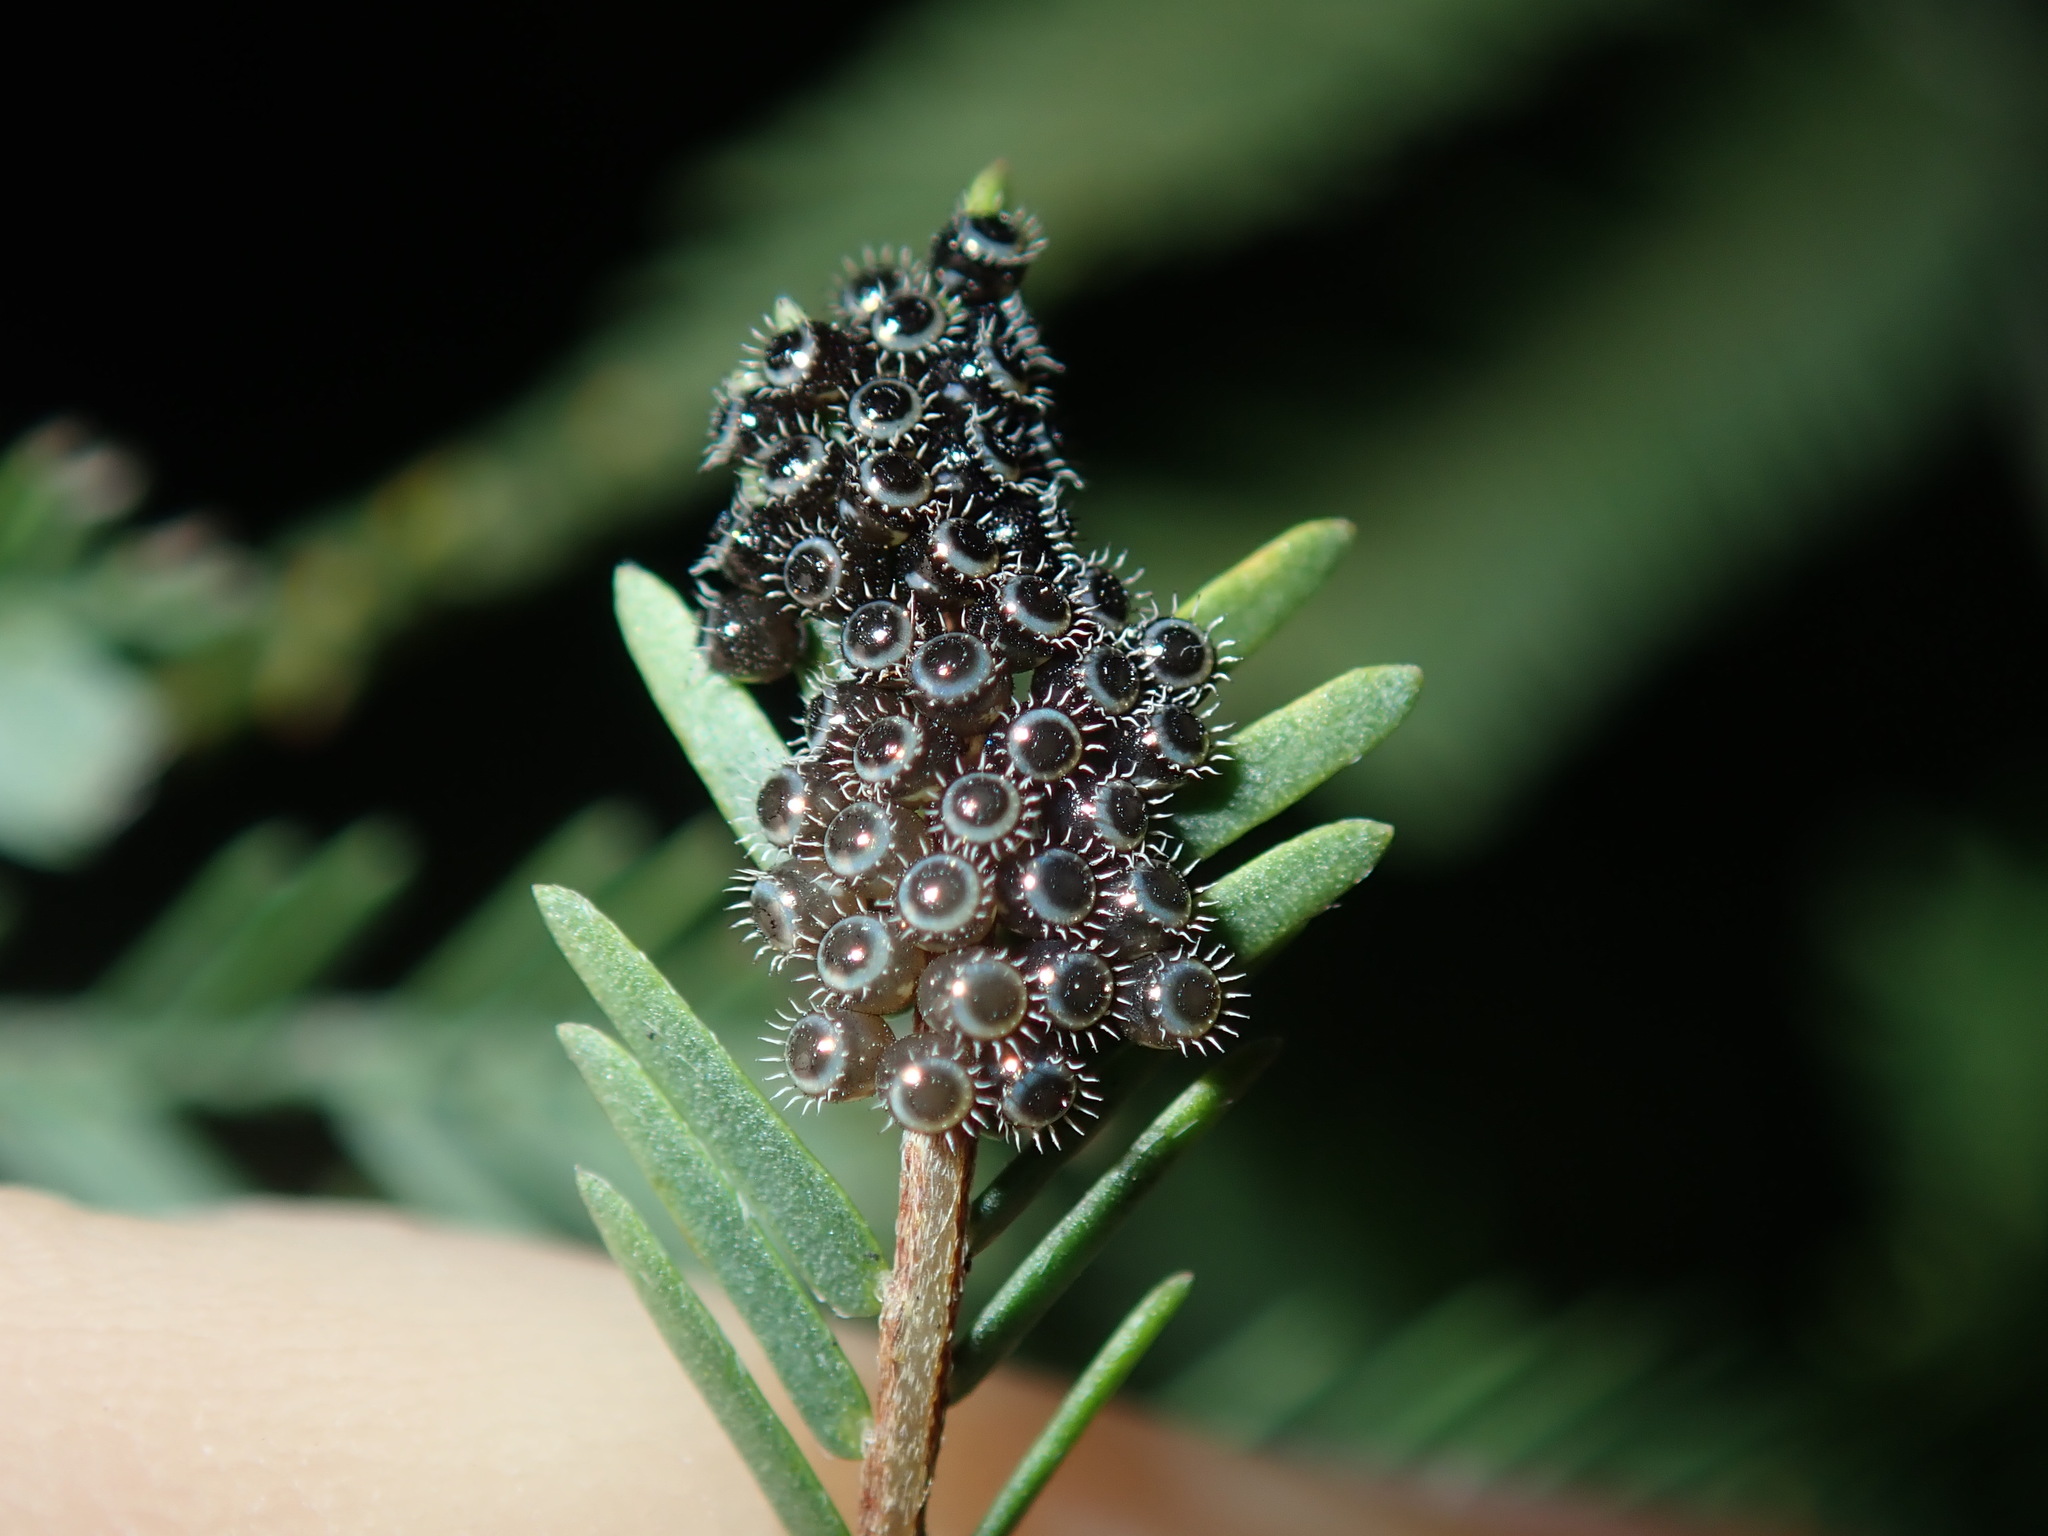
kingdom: Animalia
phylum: Arthropoda
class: Insecta
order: Hemiptera
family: Pentatomidae
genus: Oechalia
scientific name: Oechalia schellenbergii
